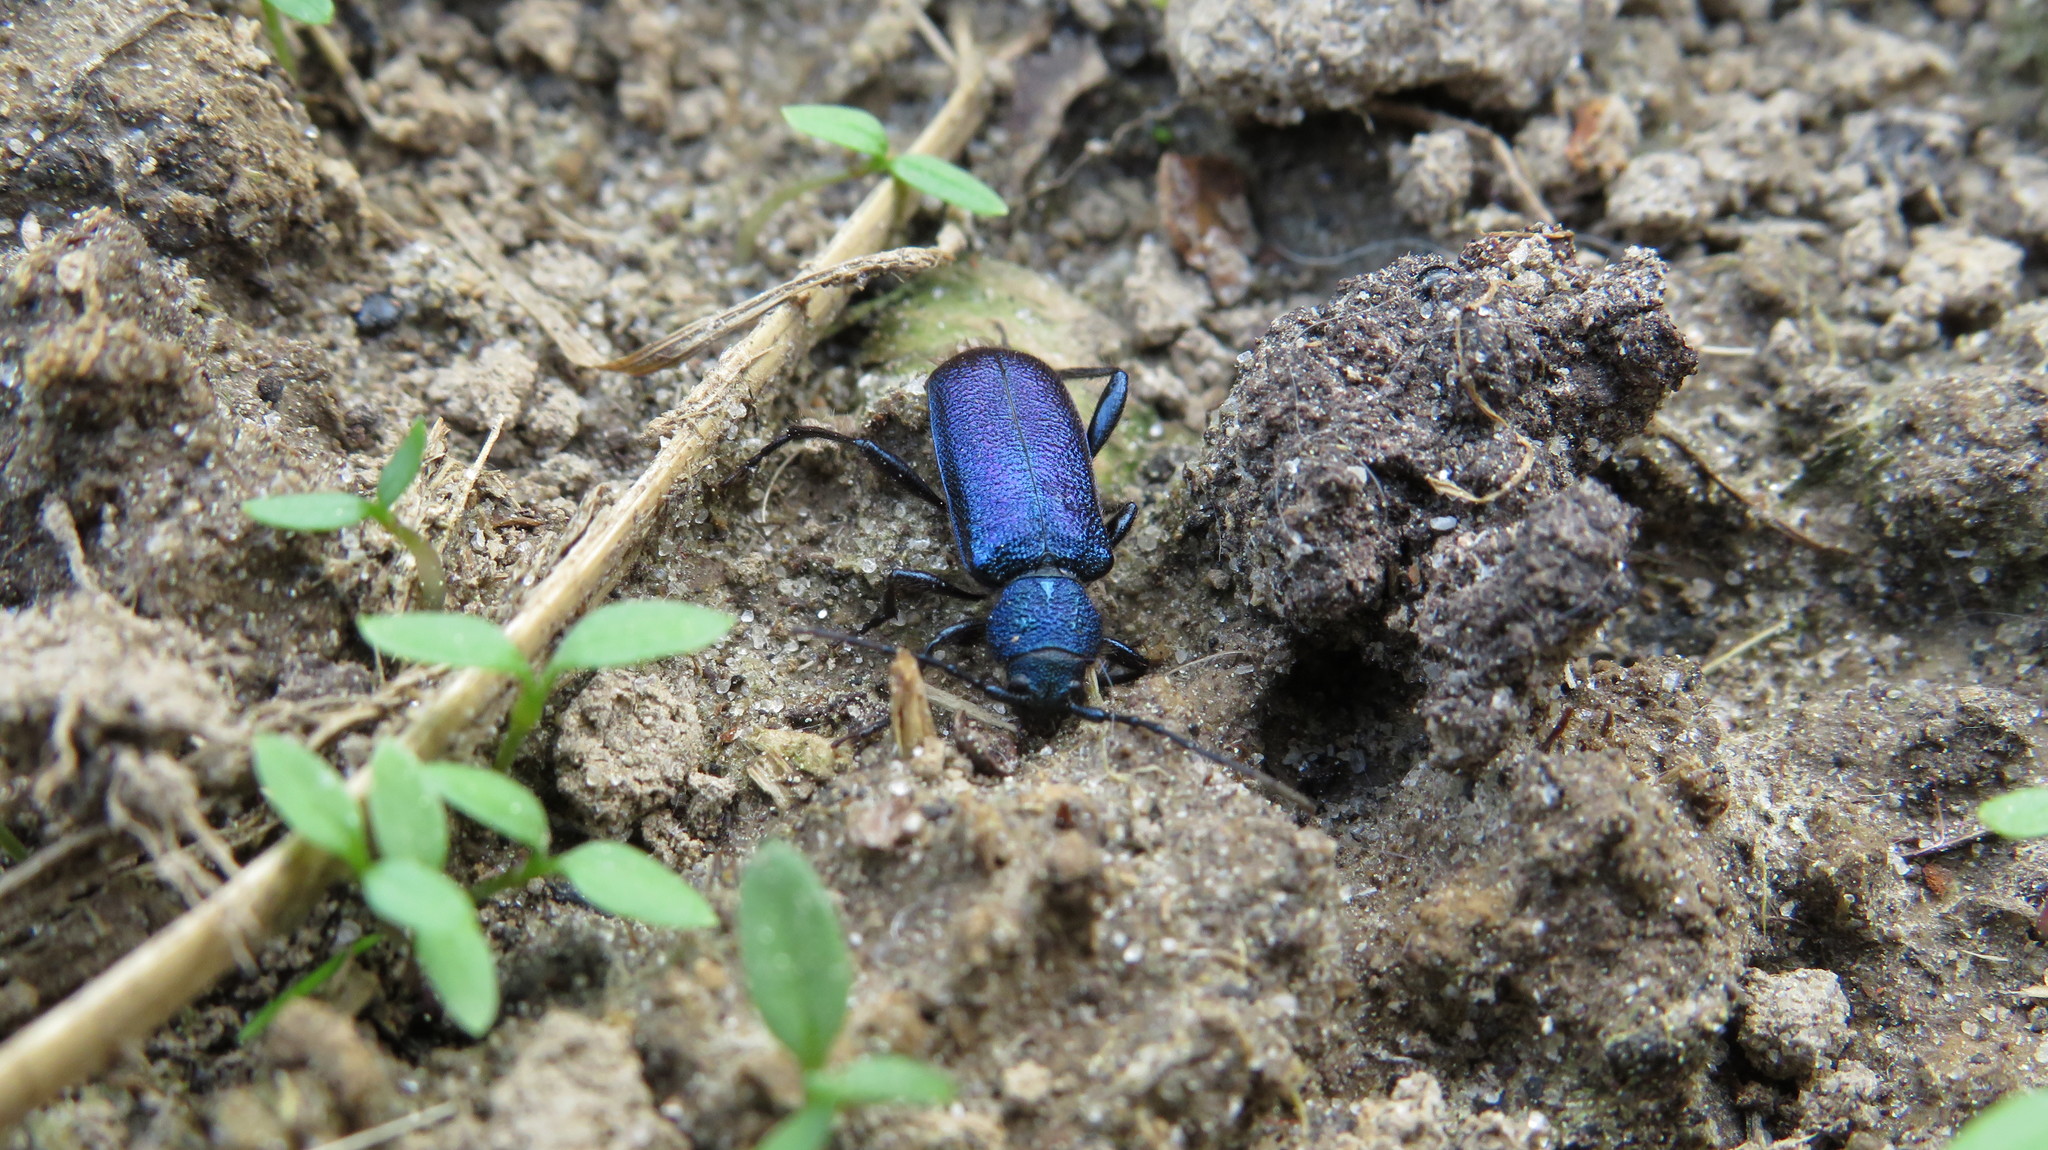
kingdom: Animalia
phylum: Arthropoda
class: Insecta
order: Coleoptera
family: Cerambycidae
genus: Callidium
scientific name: Callidium violaceum
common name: Violet tanbark beetle
